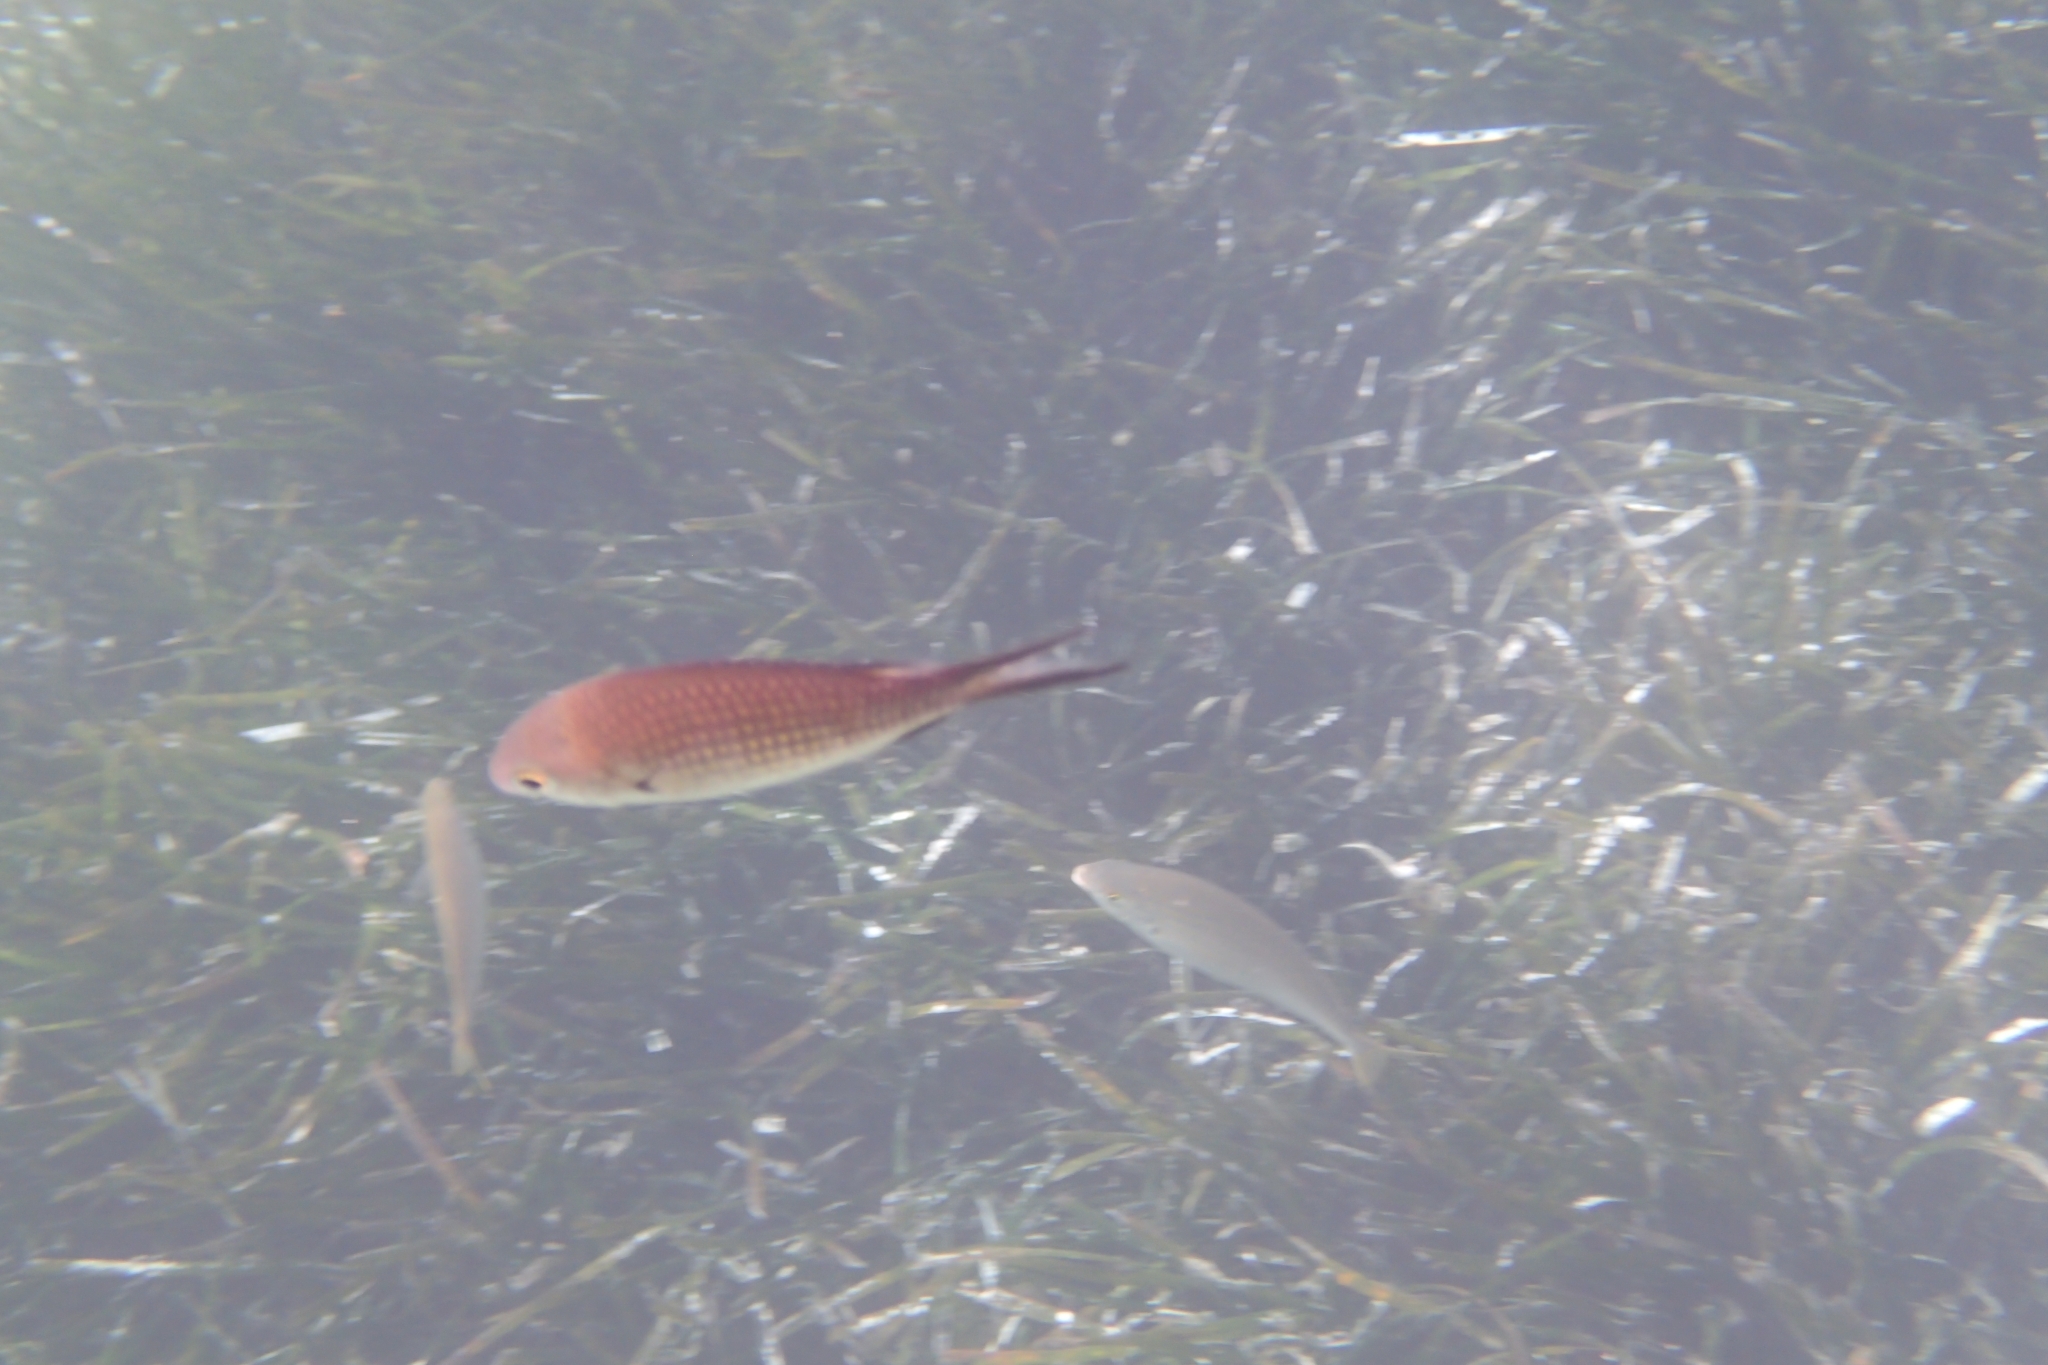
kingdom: Animalia
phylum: Chordata
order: Perciformes
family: Pomacentridae
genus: Chromis
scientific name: Chromis chromis
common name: Damselfish
